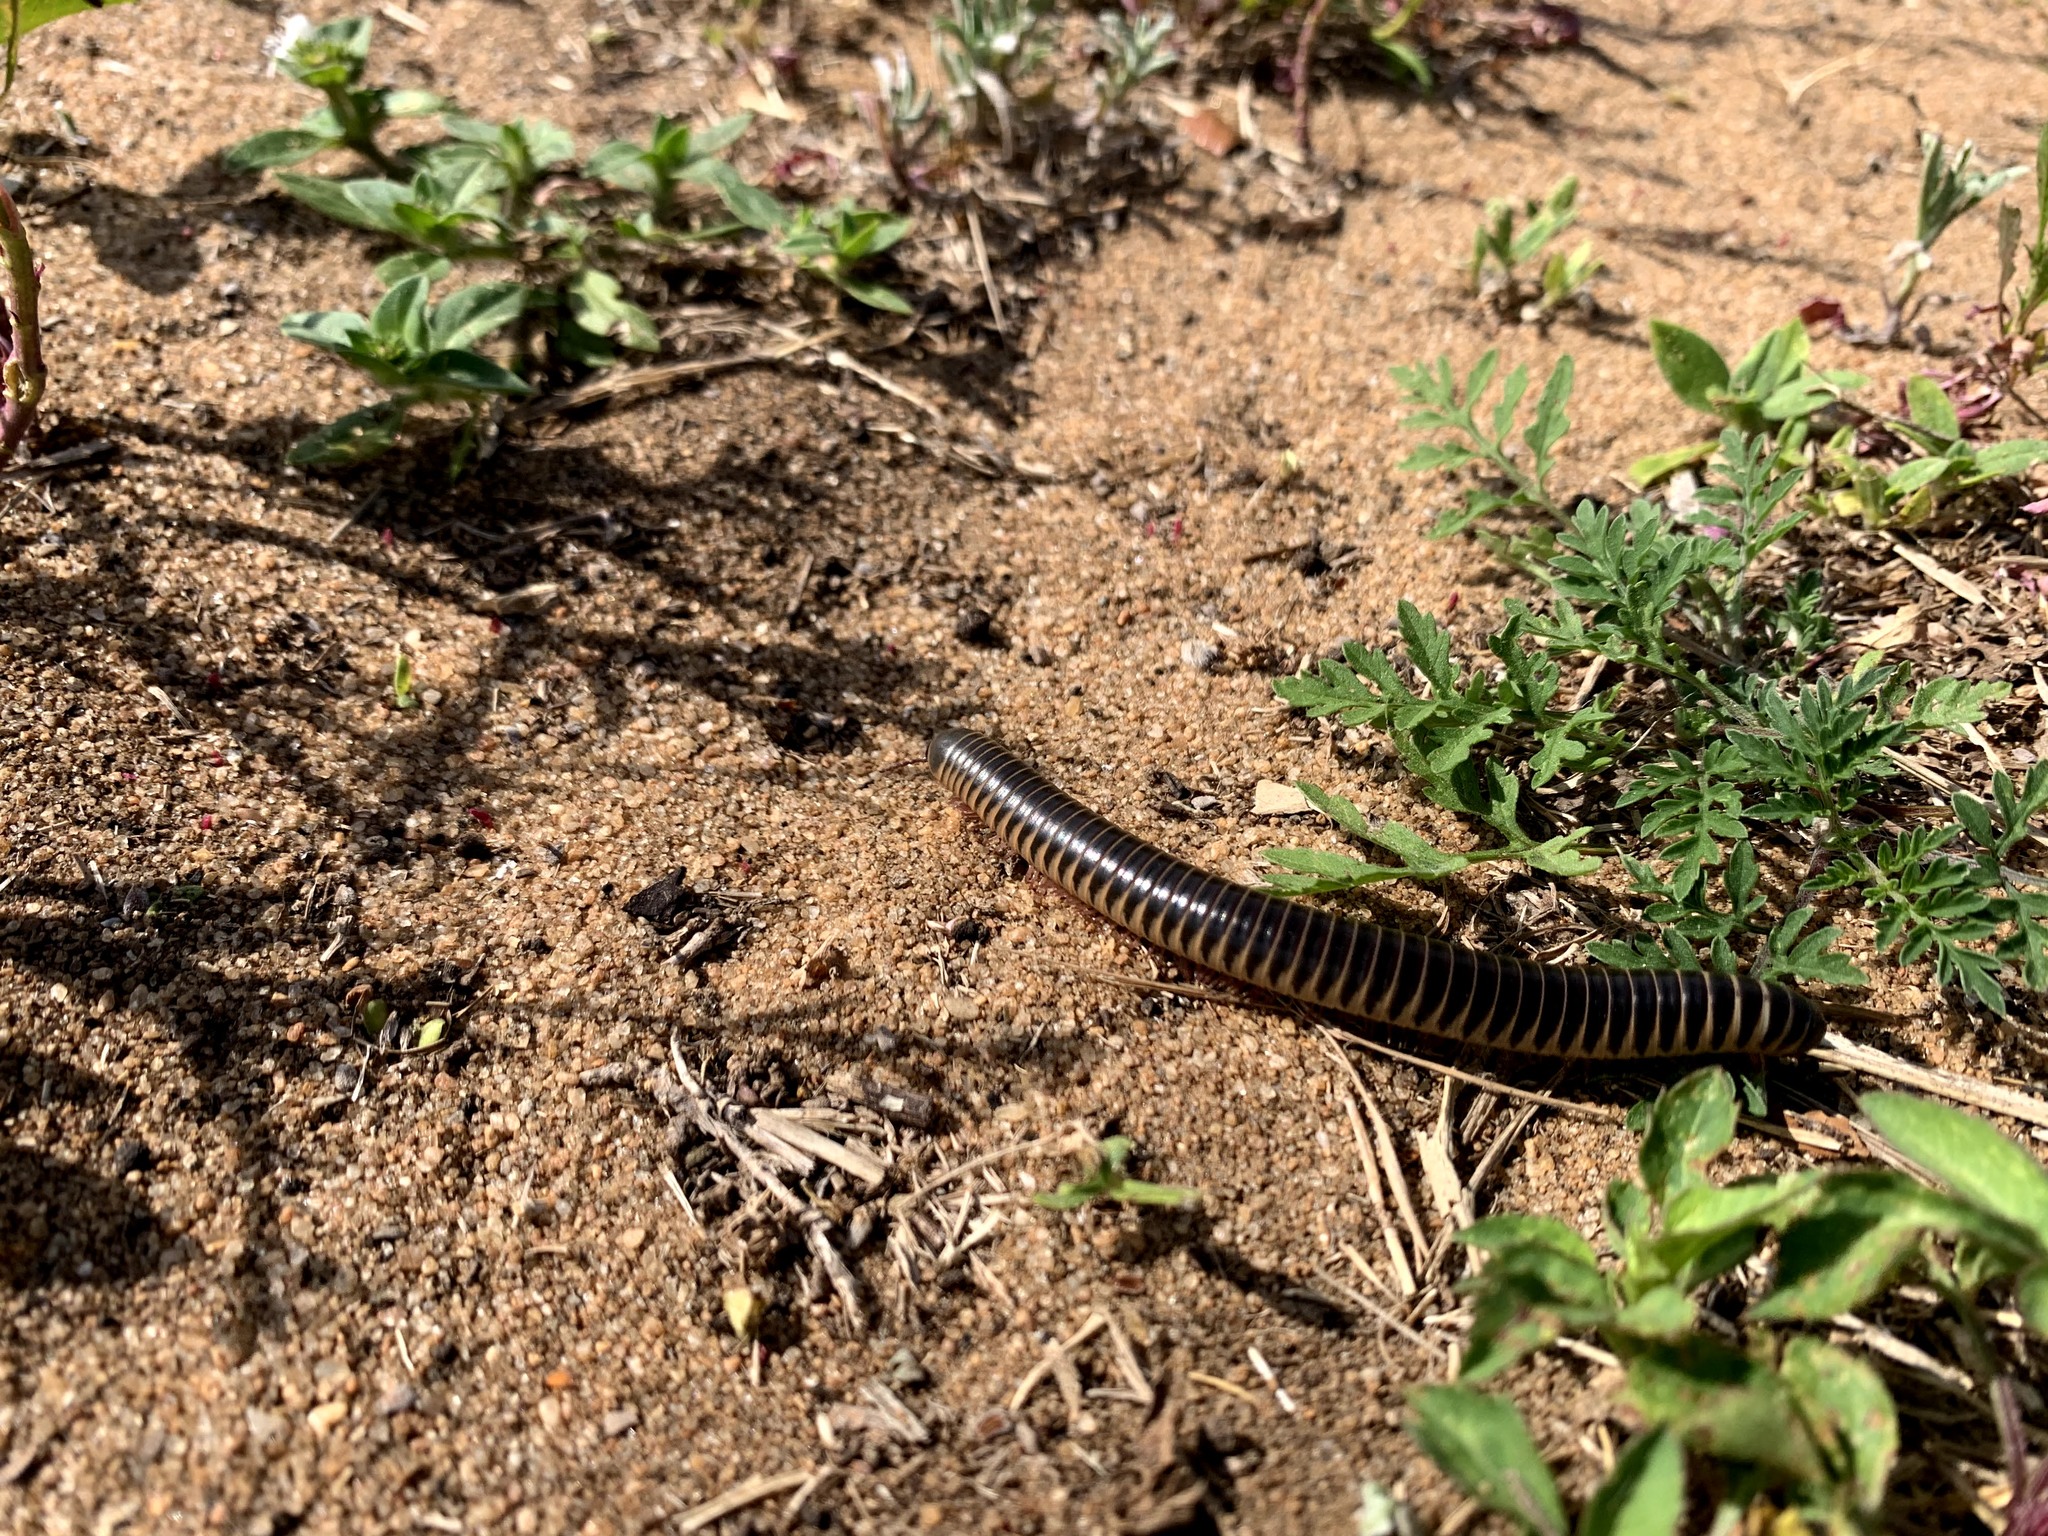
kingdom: Animalia
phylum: Arthropoda
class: Diplopoda
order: Spirobolida
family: Spirobolidae
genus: Chicobolus
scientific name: Chicobolus spinigerus
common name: Florida ivory millipede
